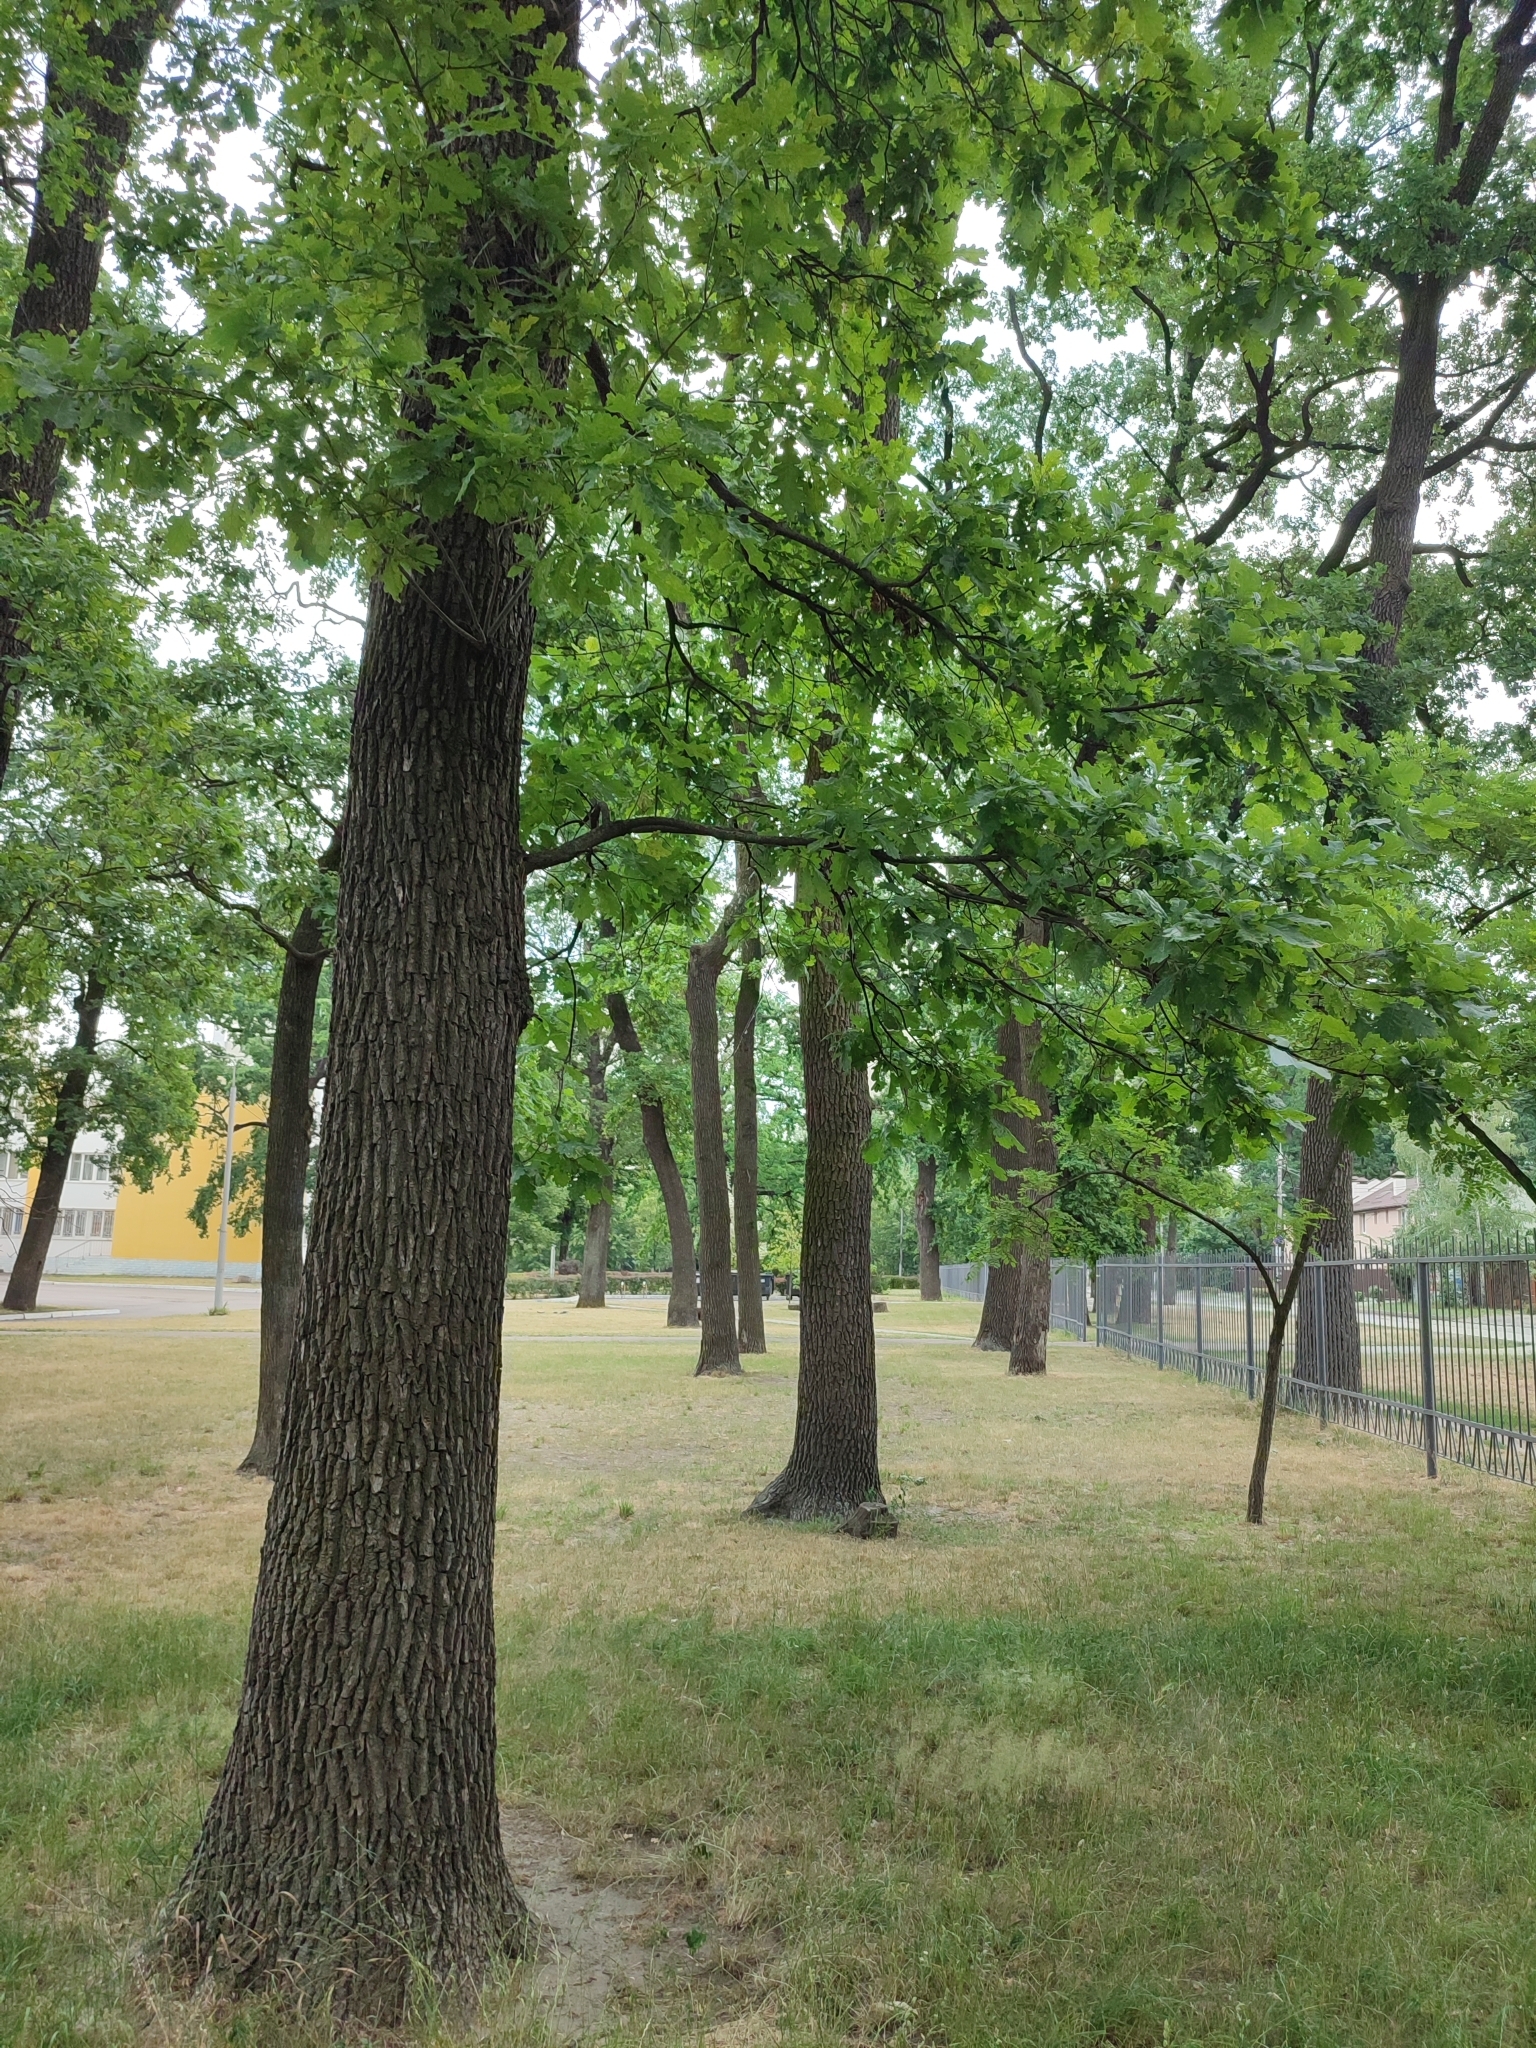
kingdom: Plantae
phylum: Tracheophyta
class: Magnoliopsida
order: Fagales
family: Fagaceae
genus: Quercus
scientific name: Quercus robur
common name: Pedunculate oak
